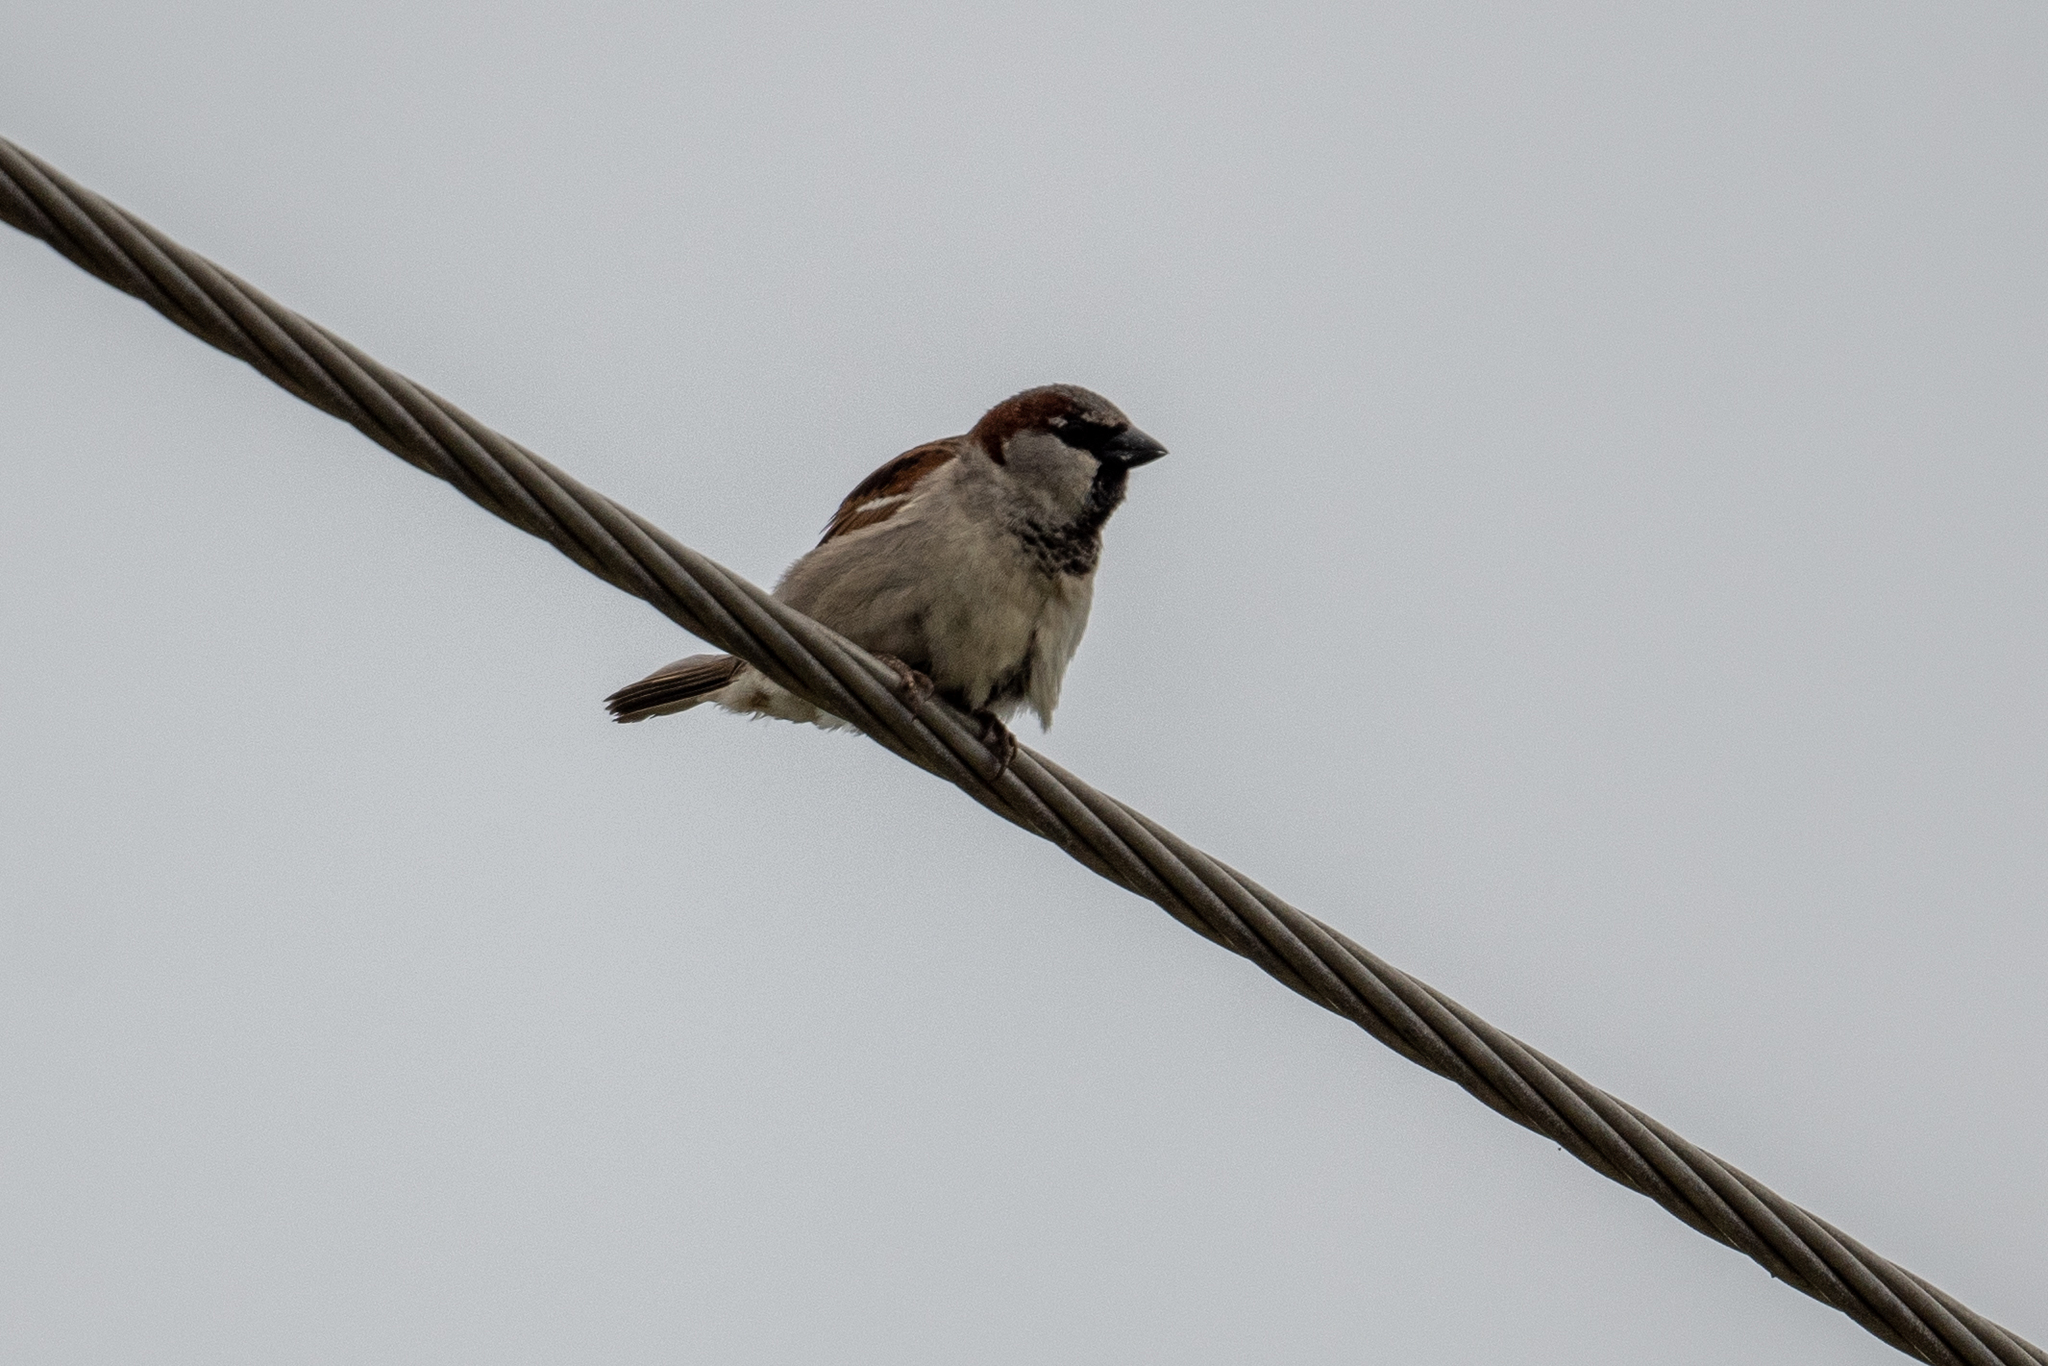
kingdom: Animalia
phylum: Chordata
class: Aves
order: Passeriformes
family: Passeridae
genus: Passer
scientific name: Passer domesticus
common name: House sparrow
